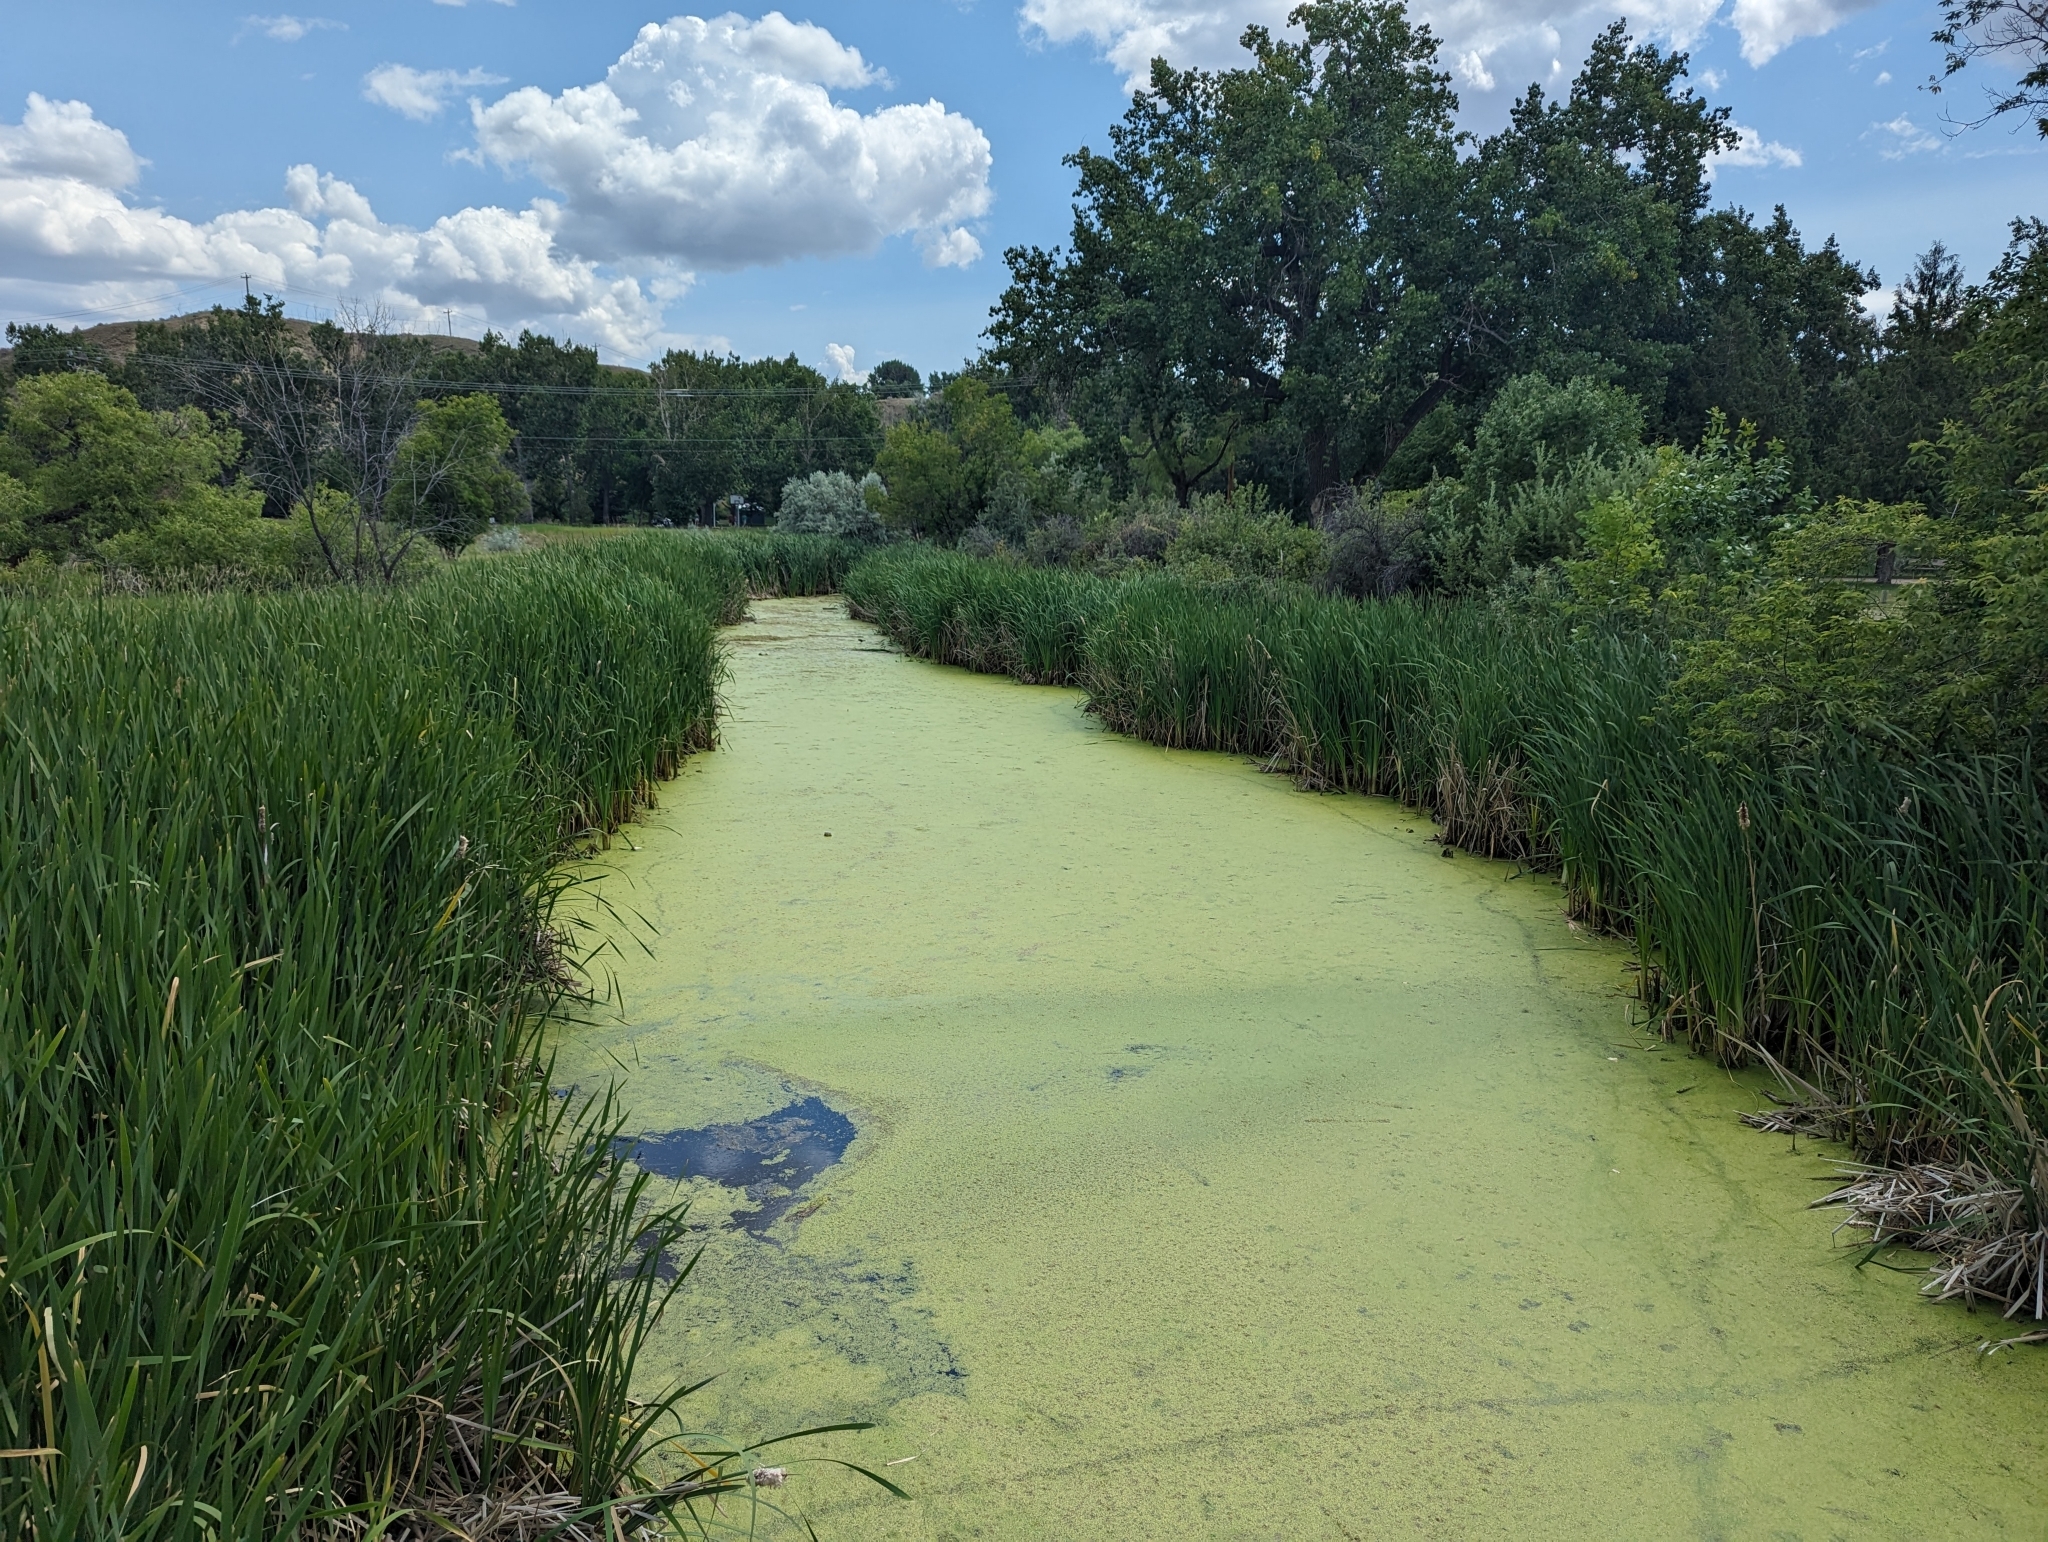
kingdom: Plantae
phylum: Tracheophyta
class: Liliopsida
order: Alismatales
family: Araceae
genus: Lemna
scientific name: Lemna minor
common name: Common duckweed
